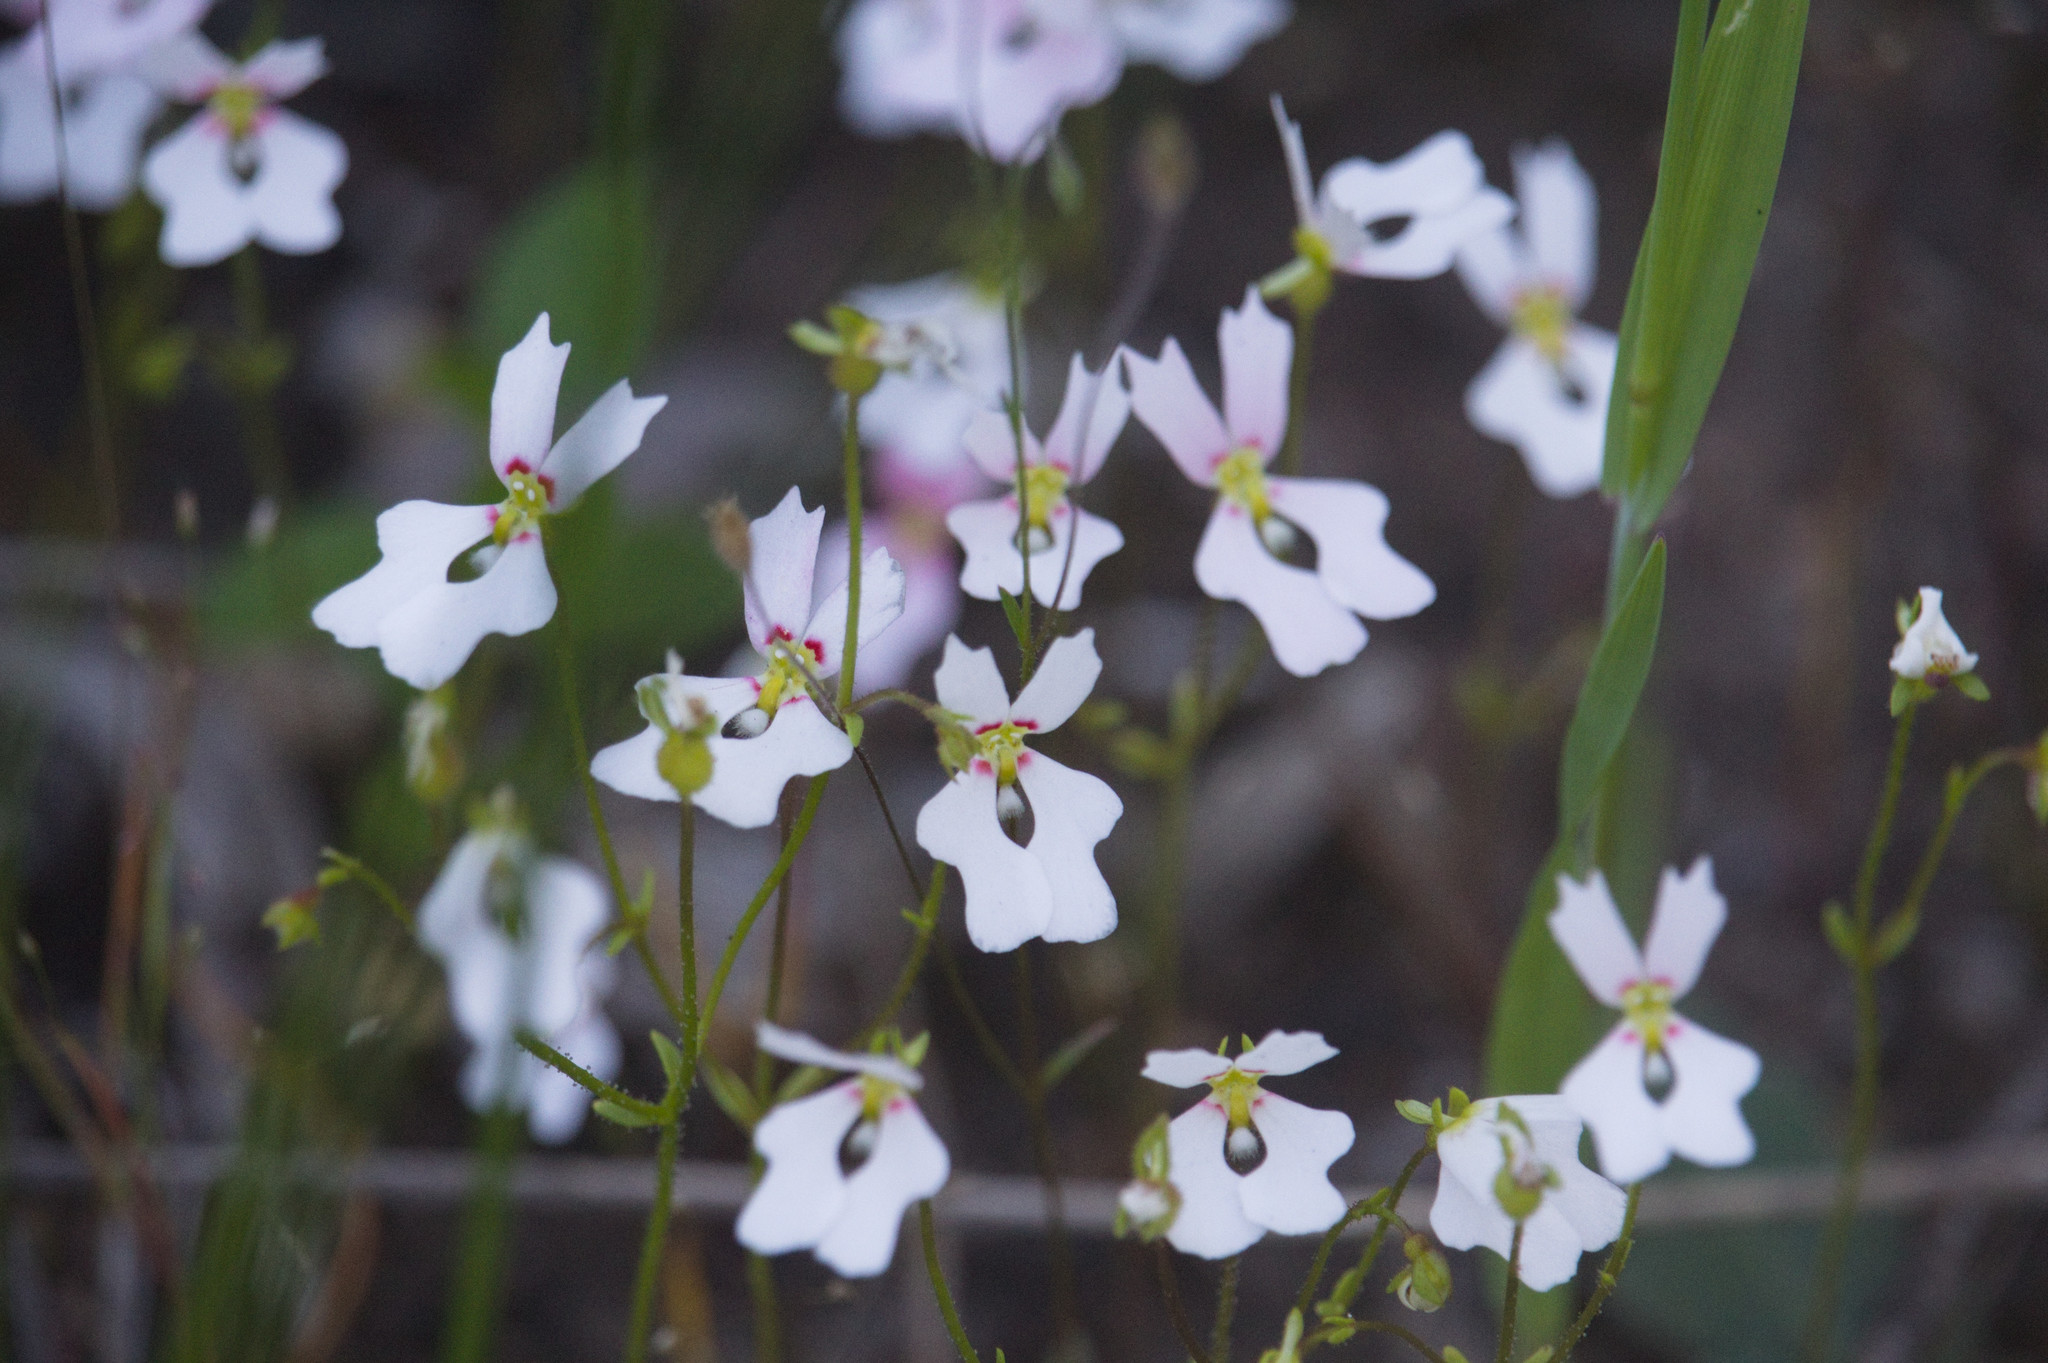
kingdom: Plantae
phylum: Tracheophyta
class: Magnoliopsida
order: Asterales
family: Stylidiaceae
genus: Stylidium
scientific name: Stylidium androsaceum
